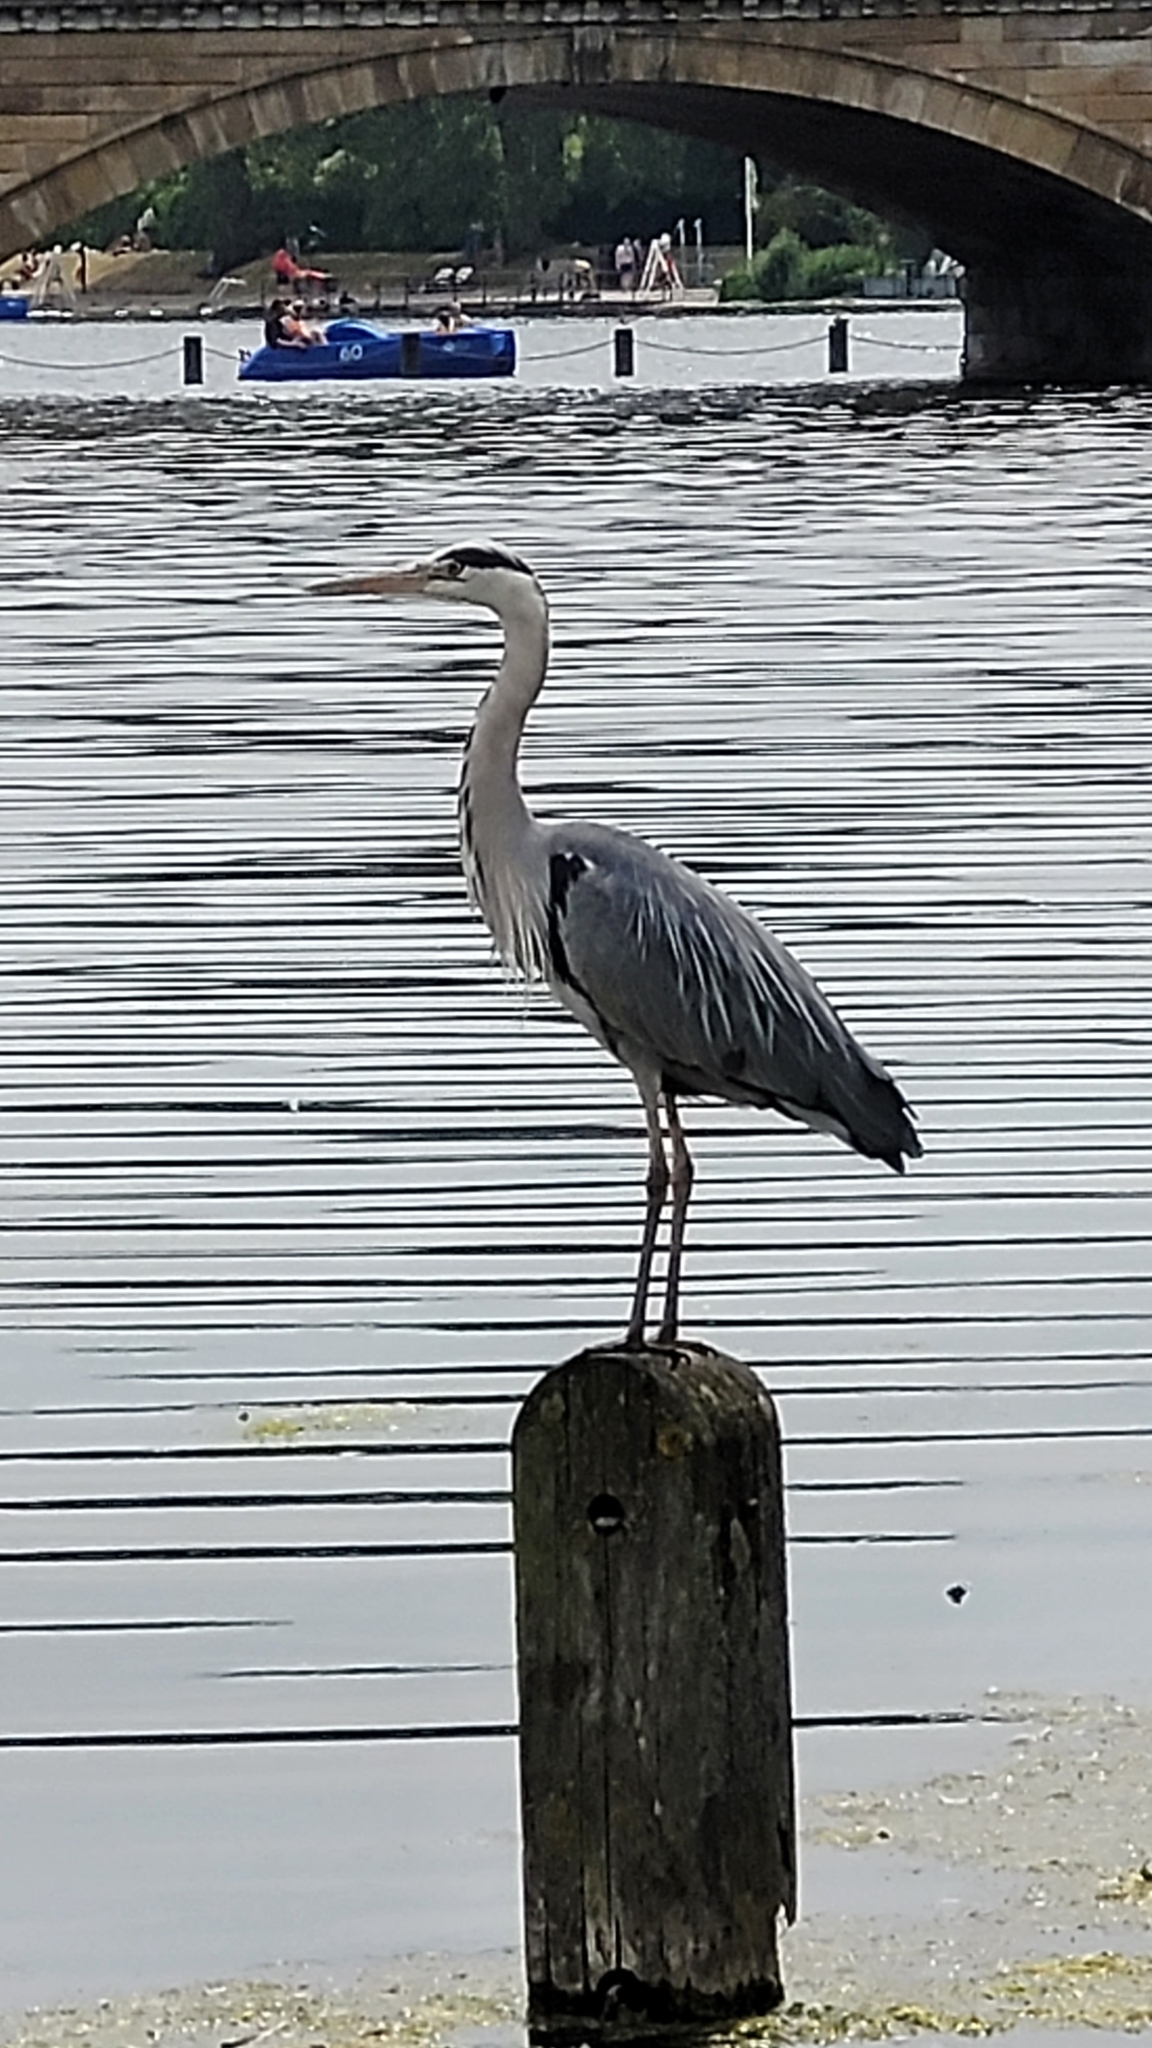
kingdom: Animalia
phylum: Chordata
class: Aves
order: Pelecaniformes
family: Ardeidae
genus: Ardea
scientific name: Ardea cinerea
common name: Grey heron
